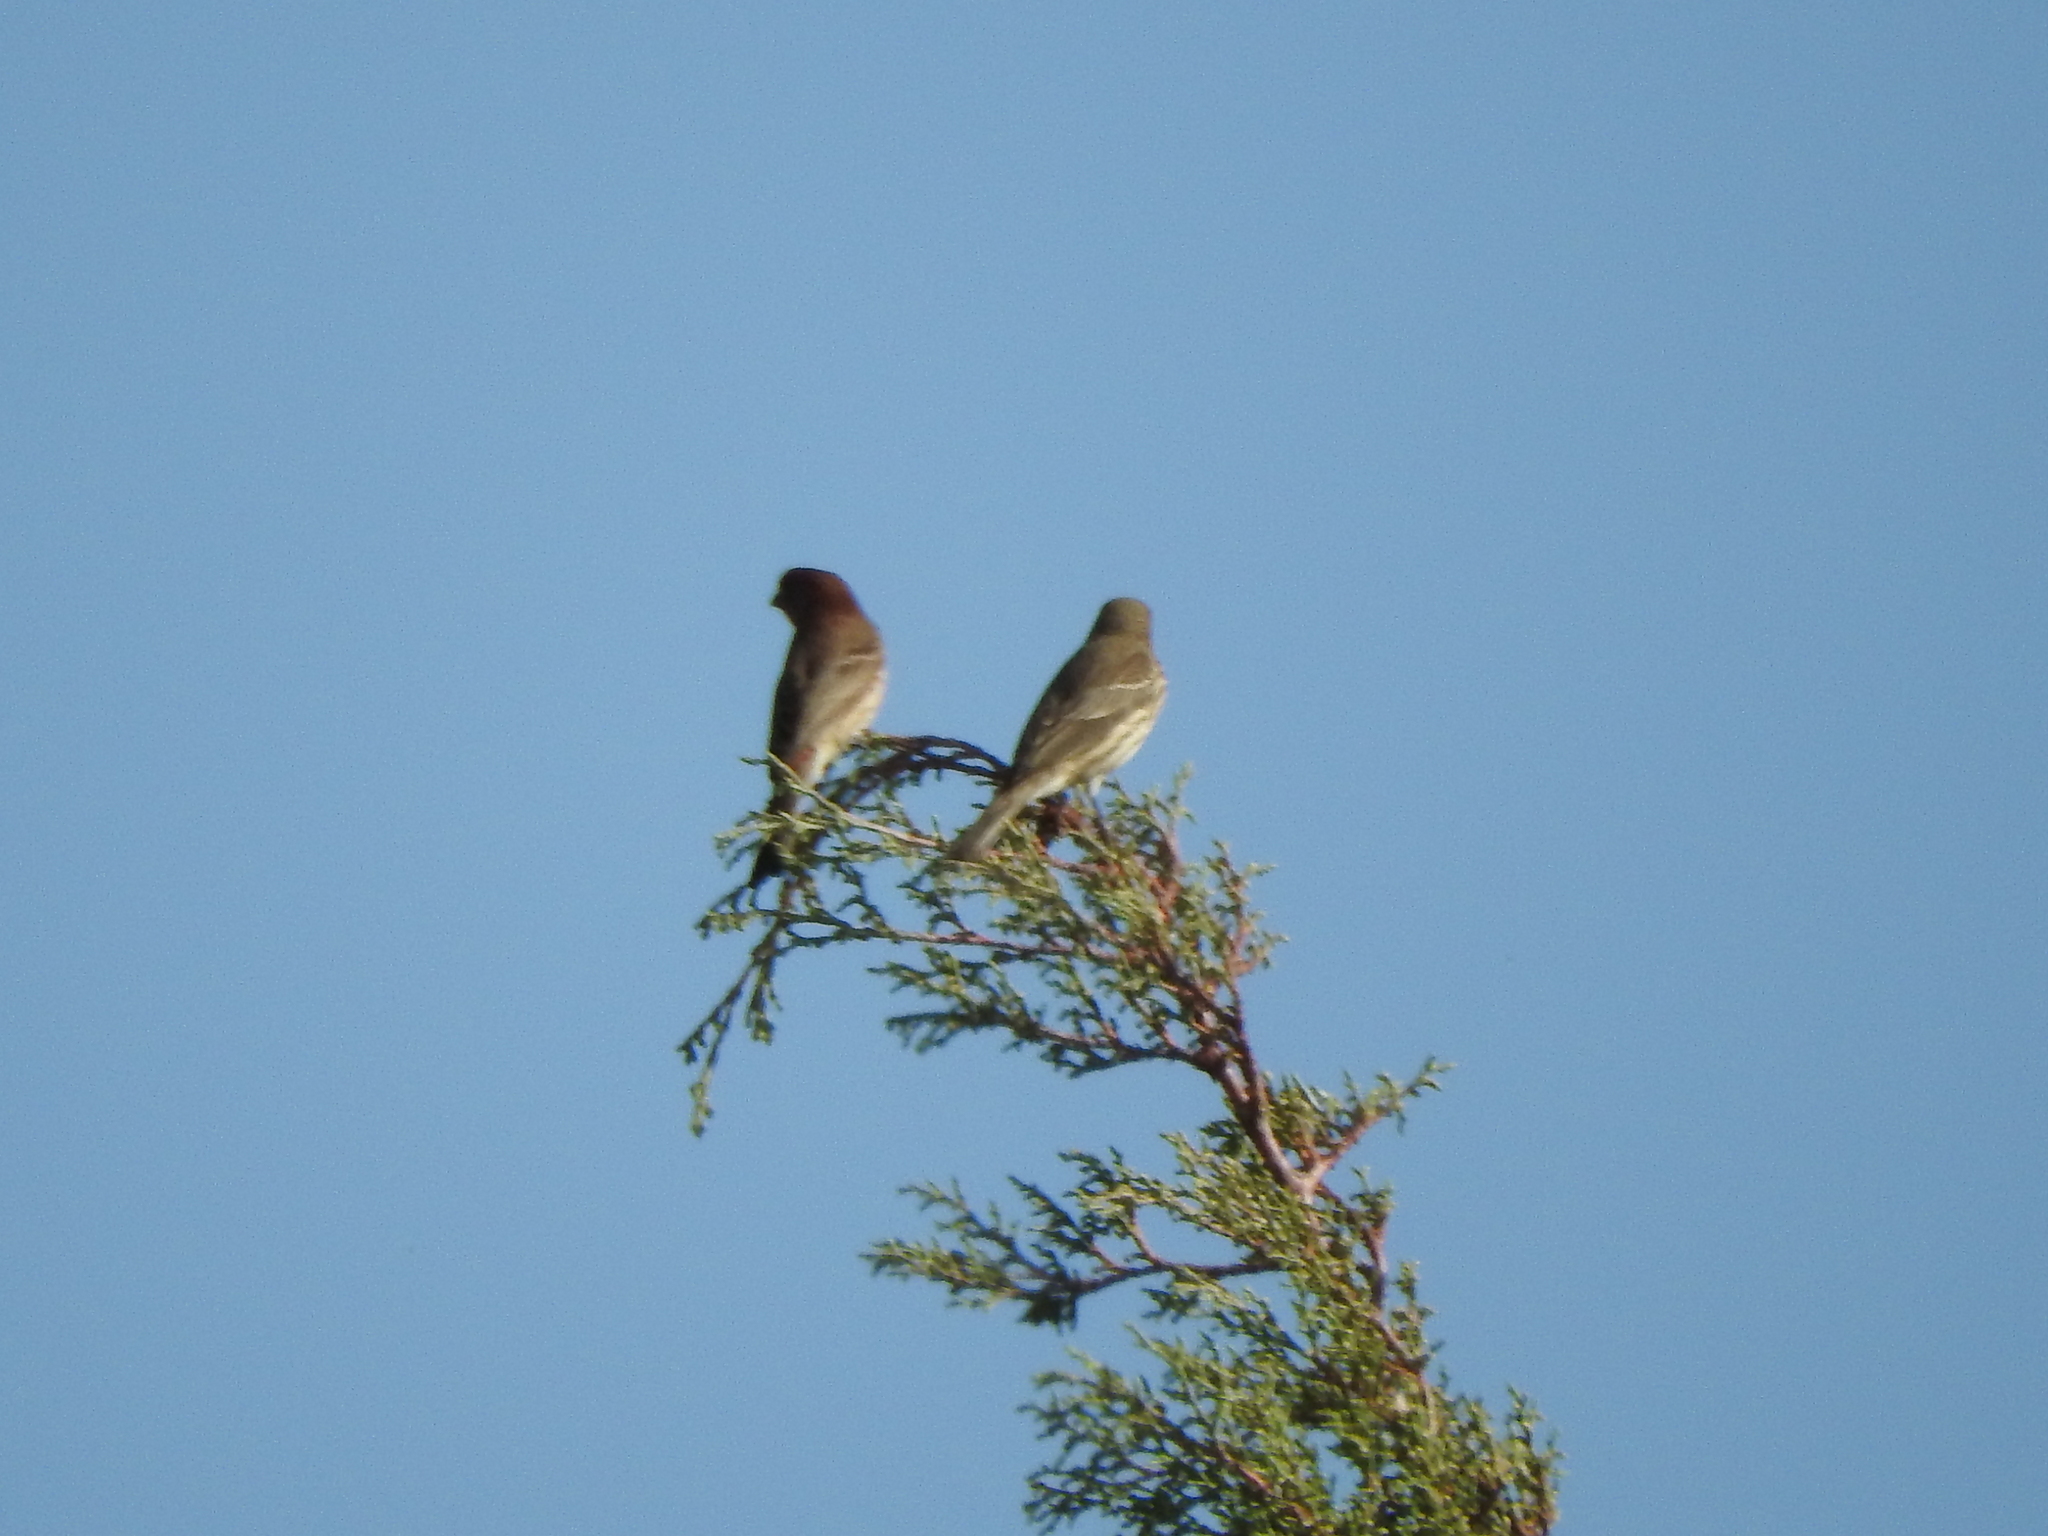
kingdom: Animalia
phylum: Chordata
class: Aves
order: Passeriformes
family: Fringillidae
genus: Haemorhous
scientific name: Haemorhous mexicanus
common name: House finch
